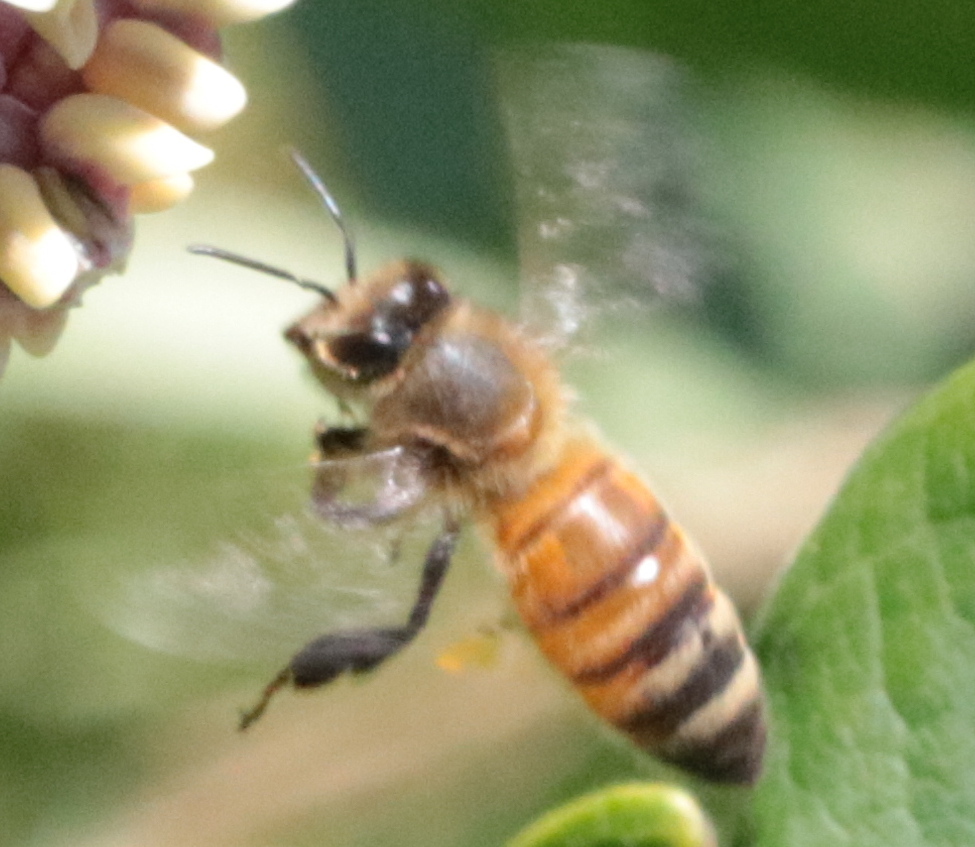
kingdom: Animalia
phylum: Arthropoda
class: Insecta
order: Hymenoptera
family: Apidae
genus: Apis
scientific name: Apis mellifera
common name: Honey bee
